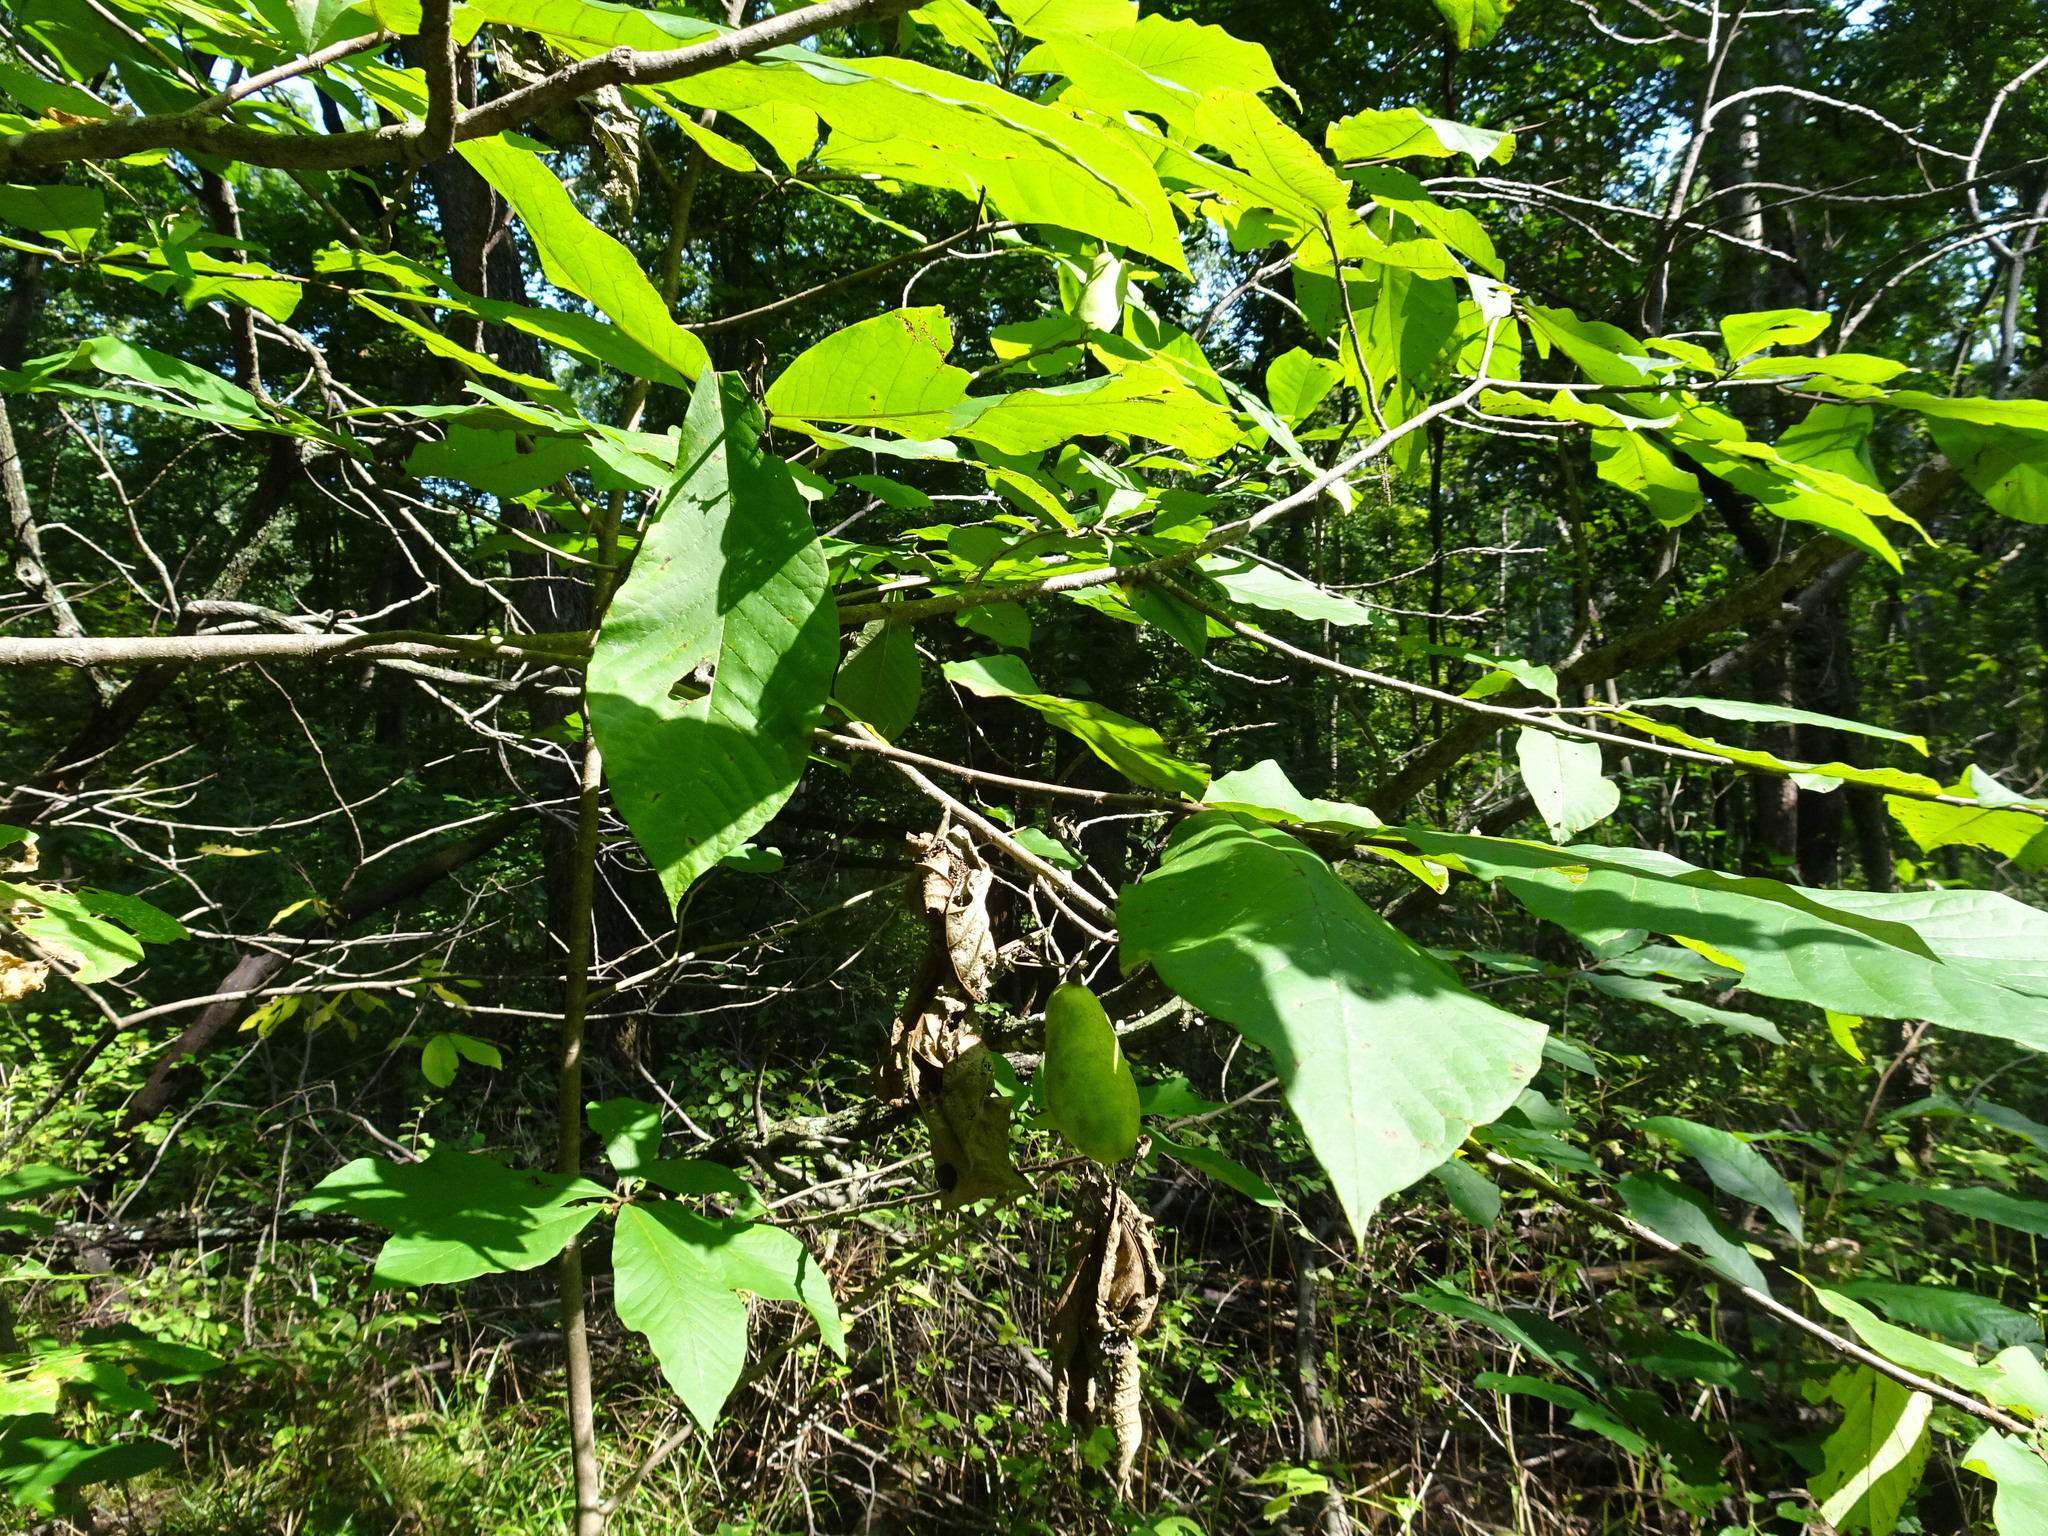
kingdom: Plantae
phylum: Tracheophyta
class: Magnoliopsida
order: Magnoliales
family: Annonaceae
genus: Asimina
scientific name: Asimina triloba
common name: Dog-banana
